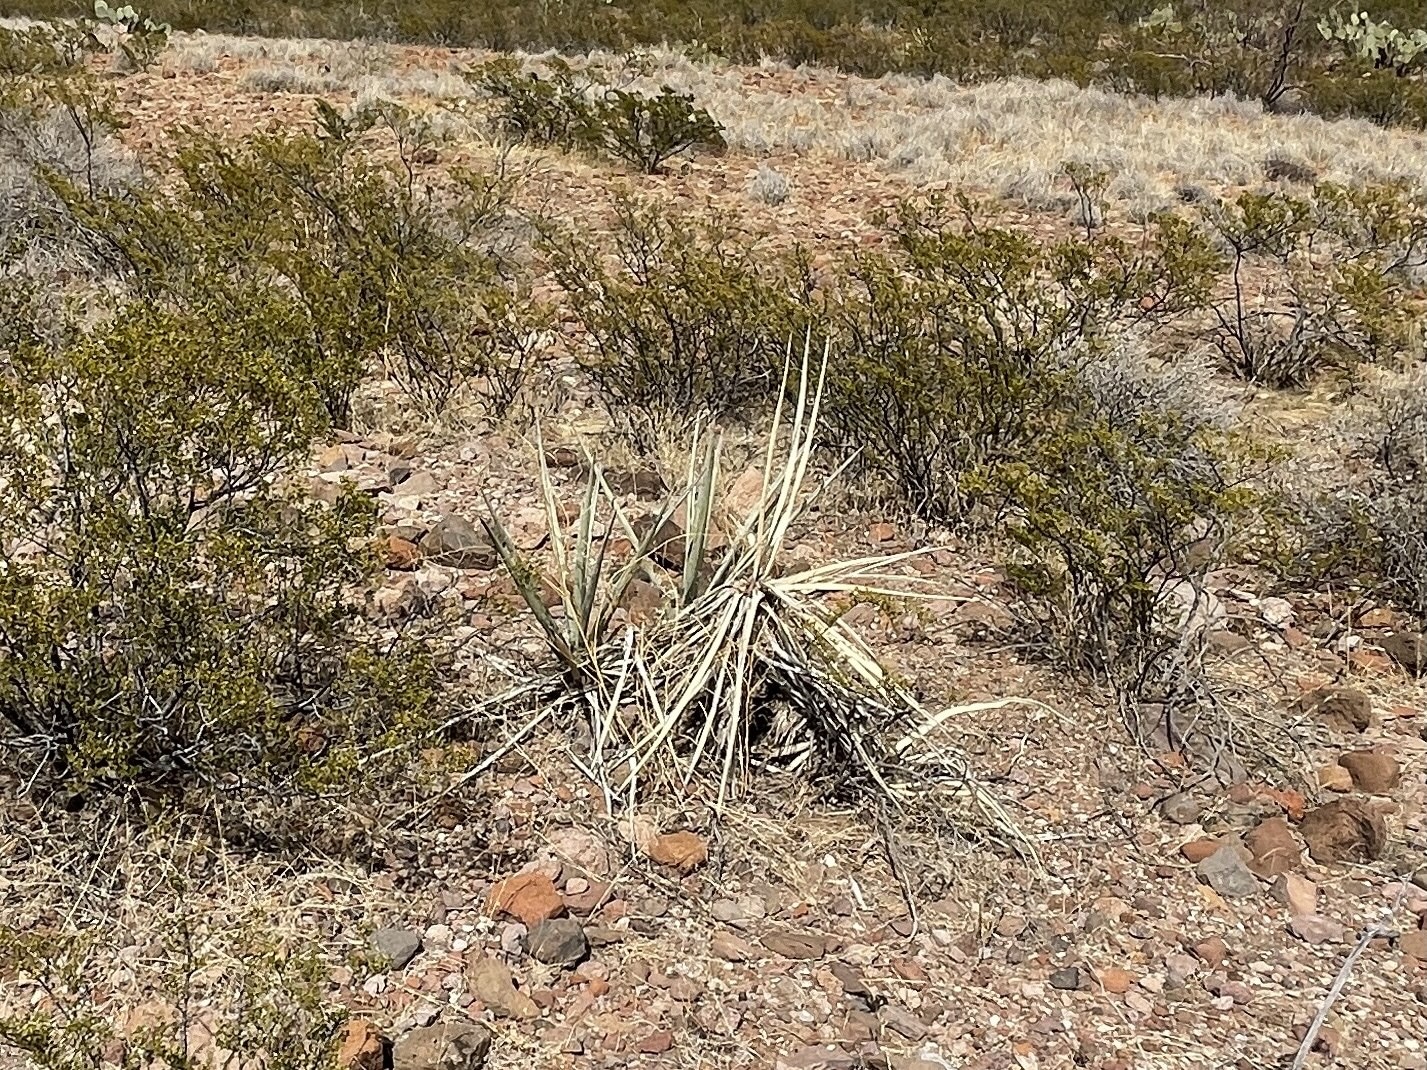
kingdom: Plantae
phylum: Tracheophyta
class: Liliopsida
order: Asparagales
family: Asparagaceae
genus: Yucca
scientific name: Yucca baccata
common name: Banana yucca
